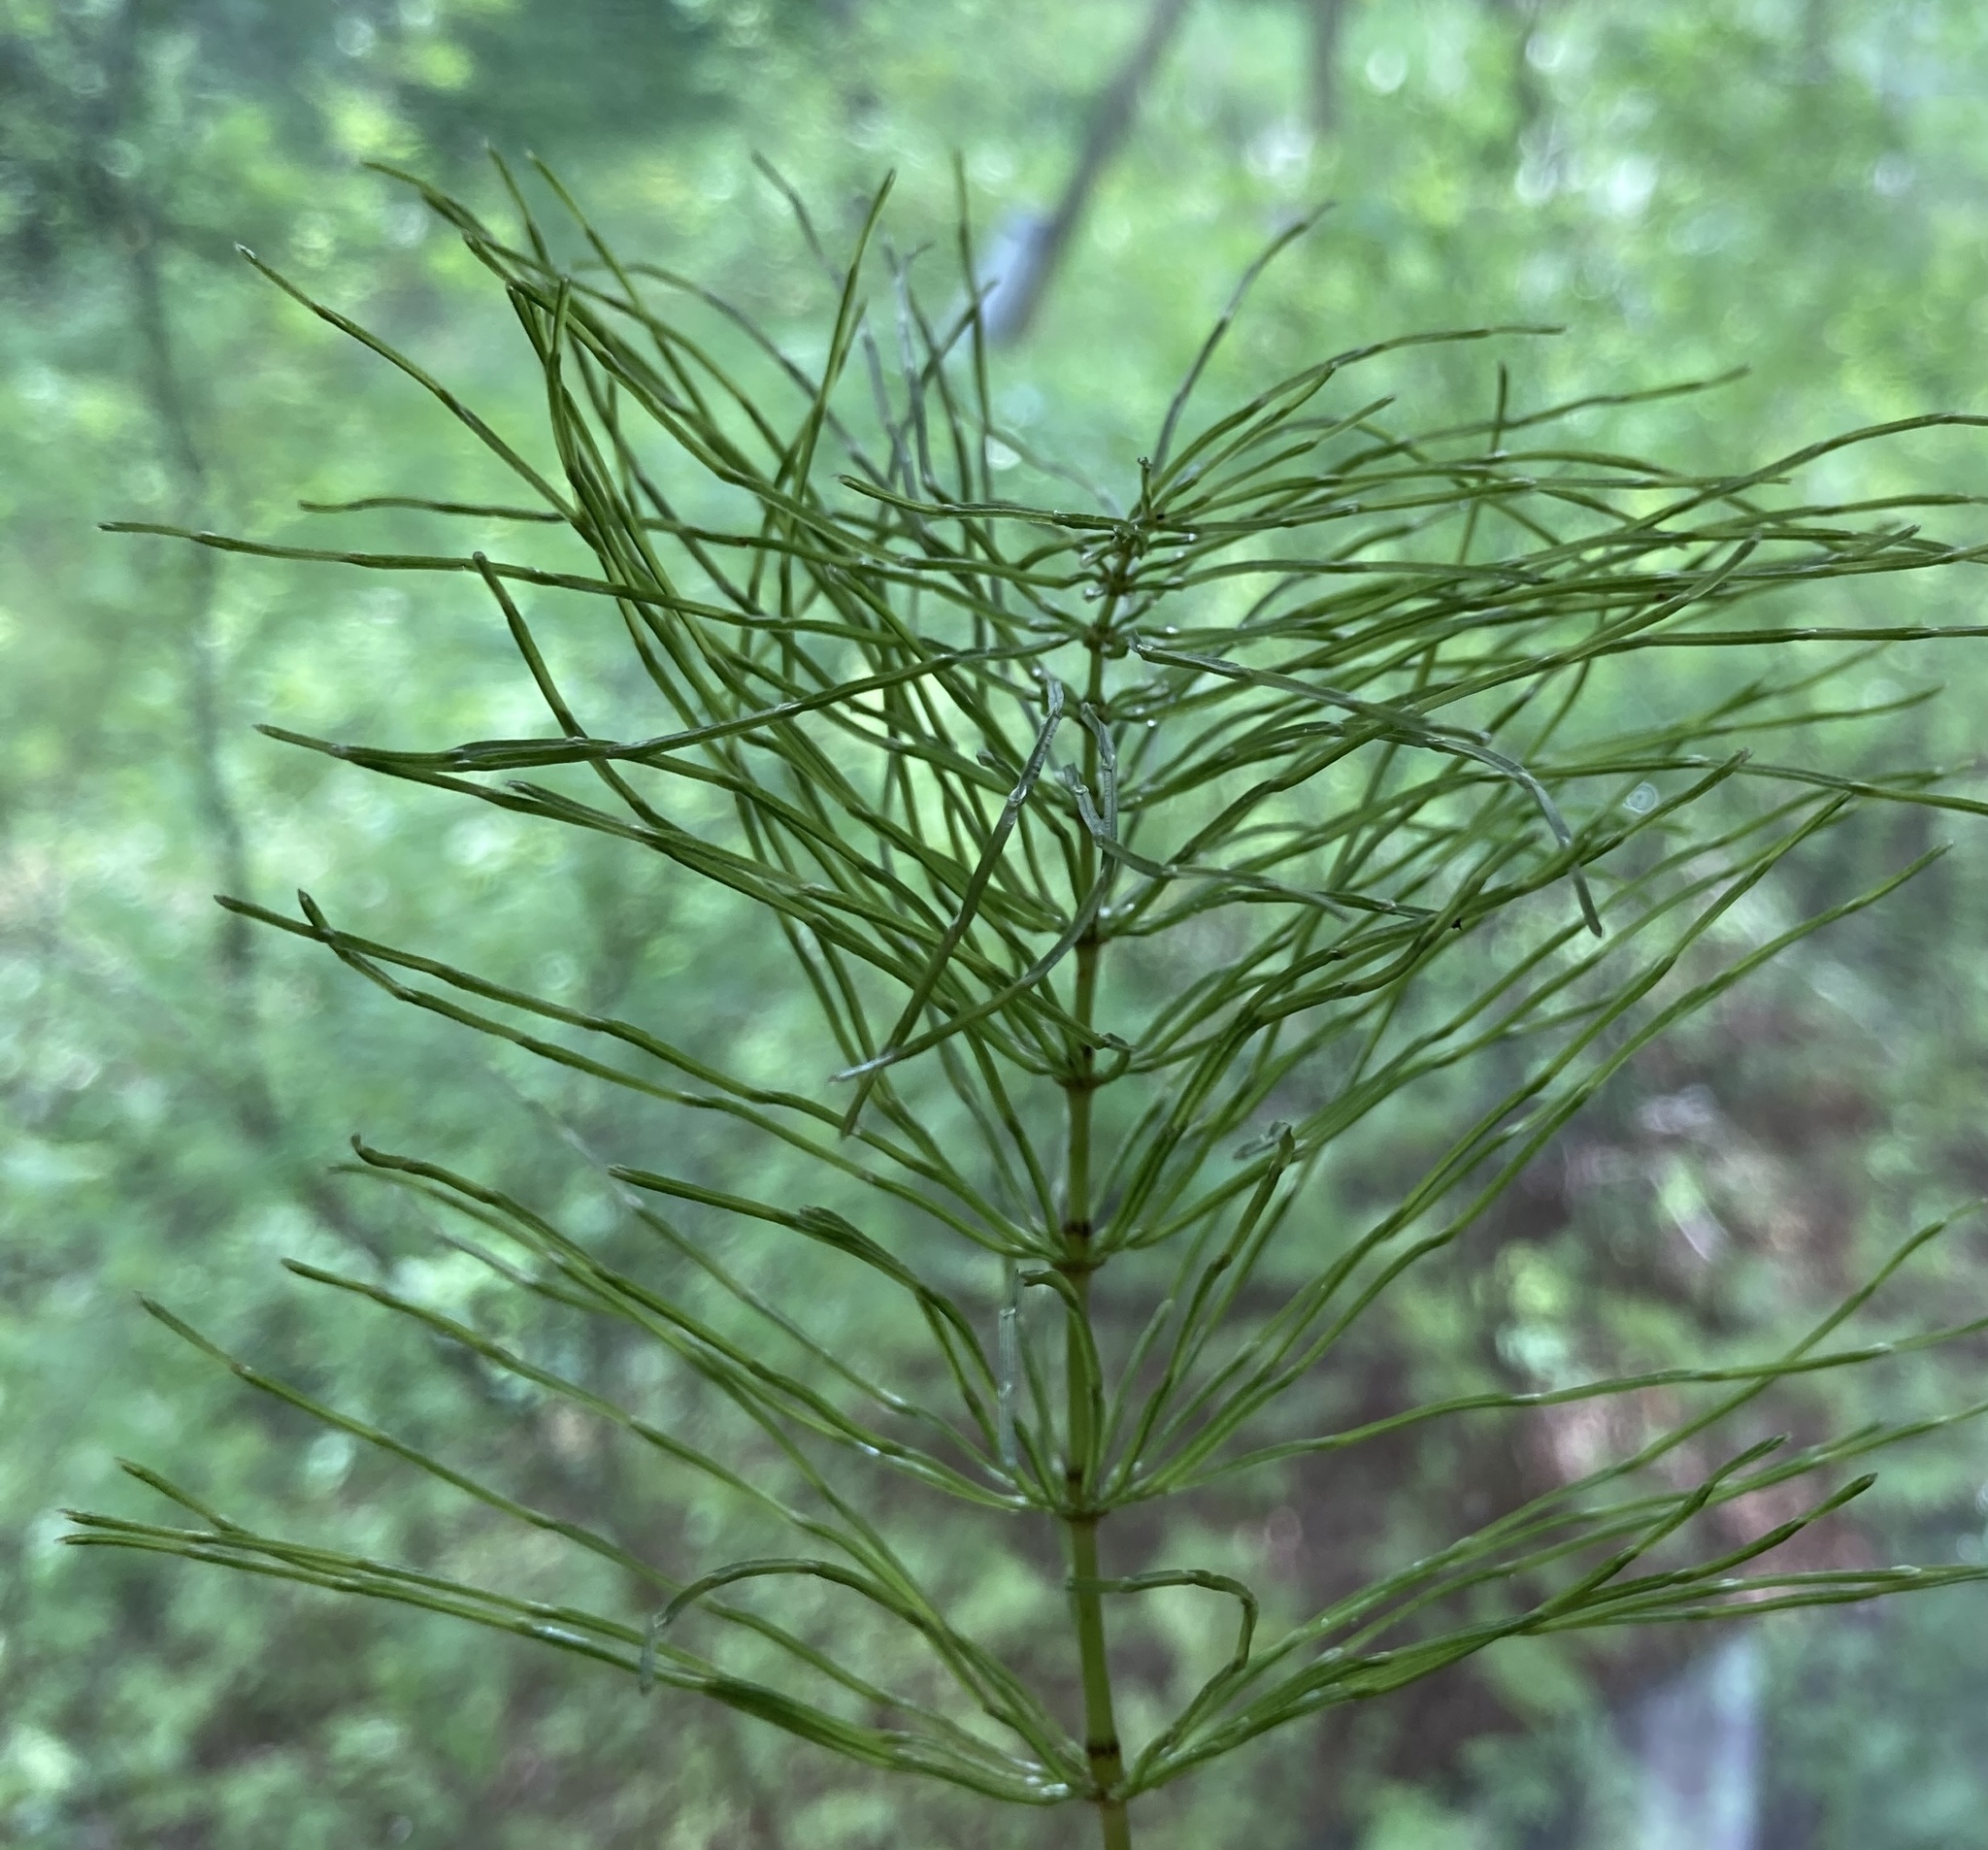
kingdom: Plantae
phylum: Tracheophyta
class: Polypodiopsida
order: Equisetales
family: Equisetaceae
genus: Equisetum
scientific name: Equisetum pratense
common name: Meadow horsetail
